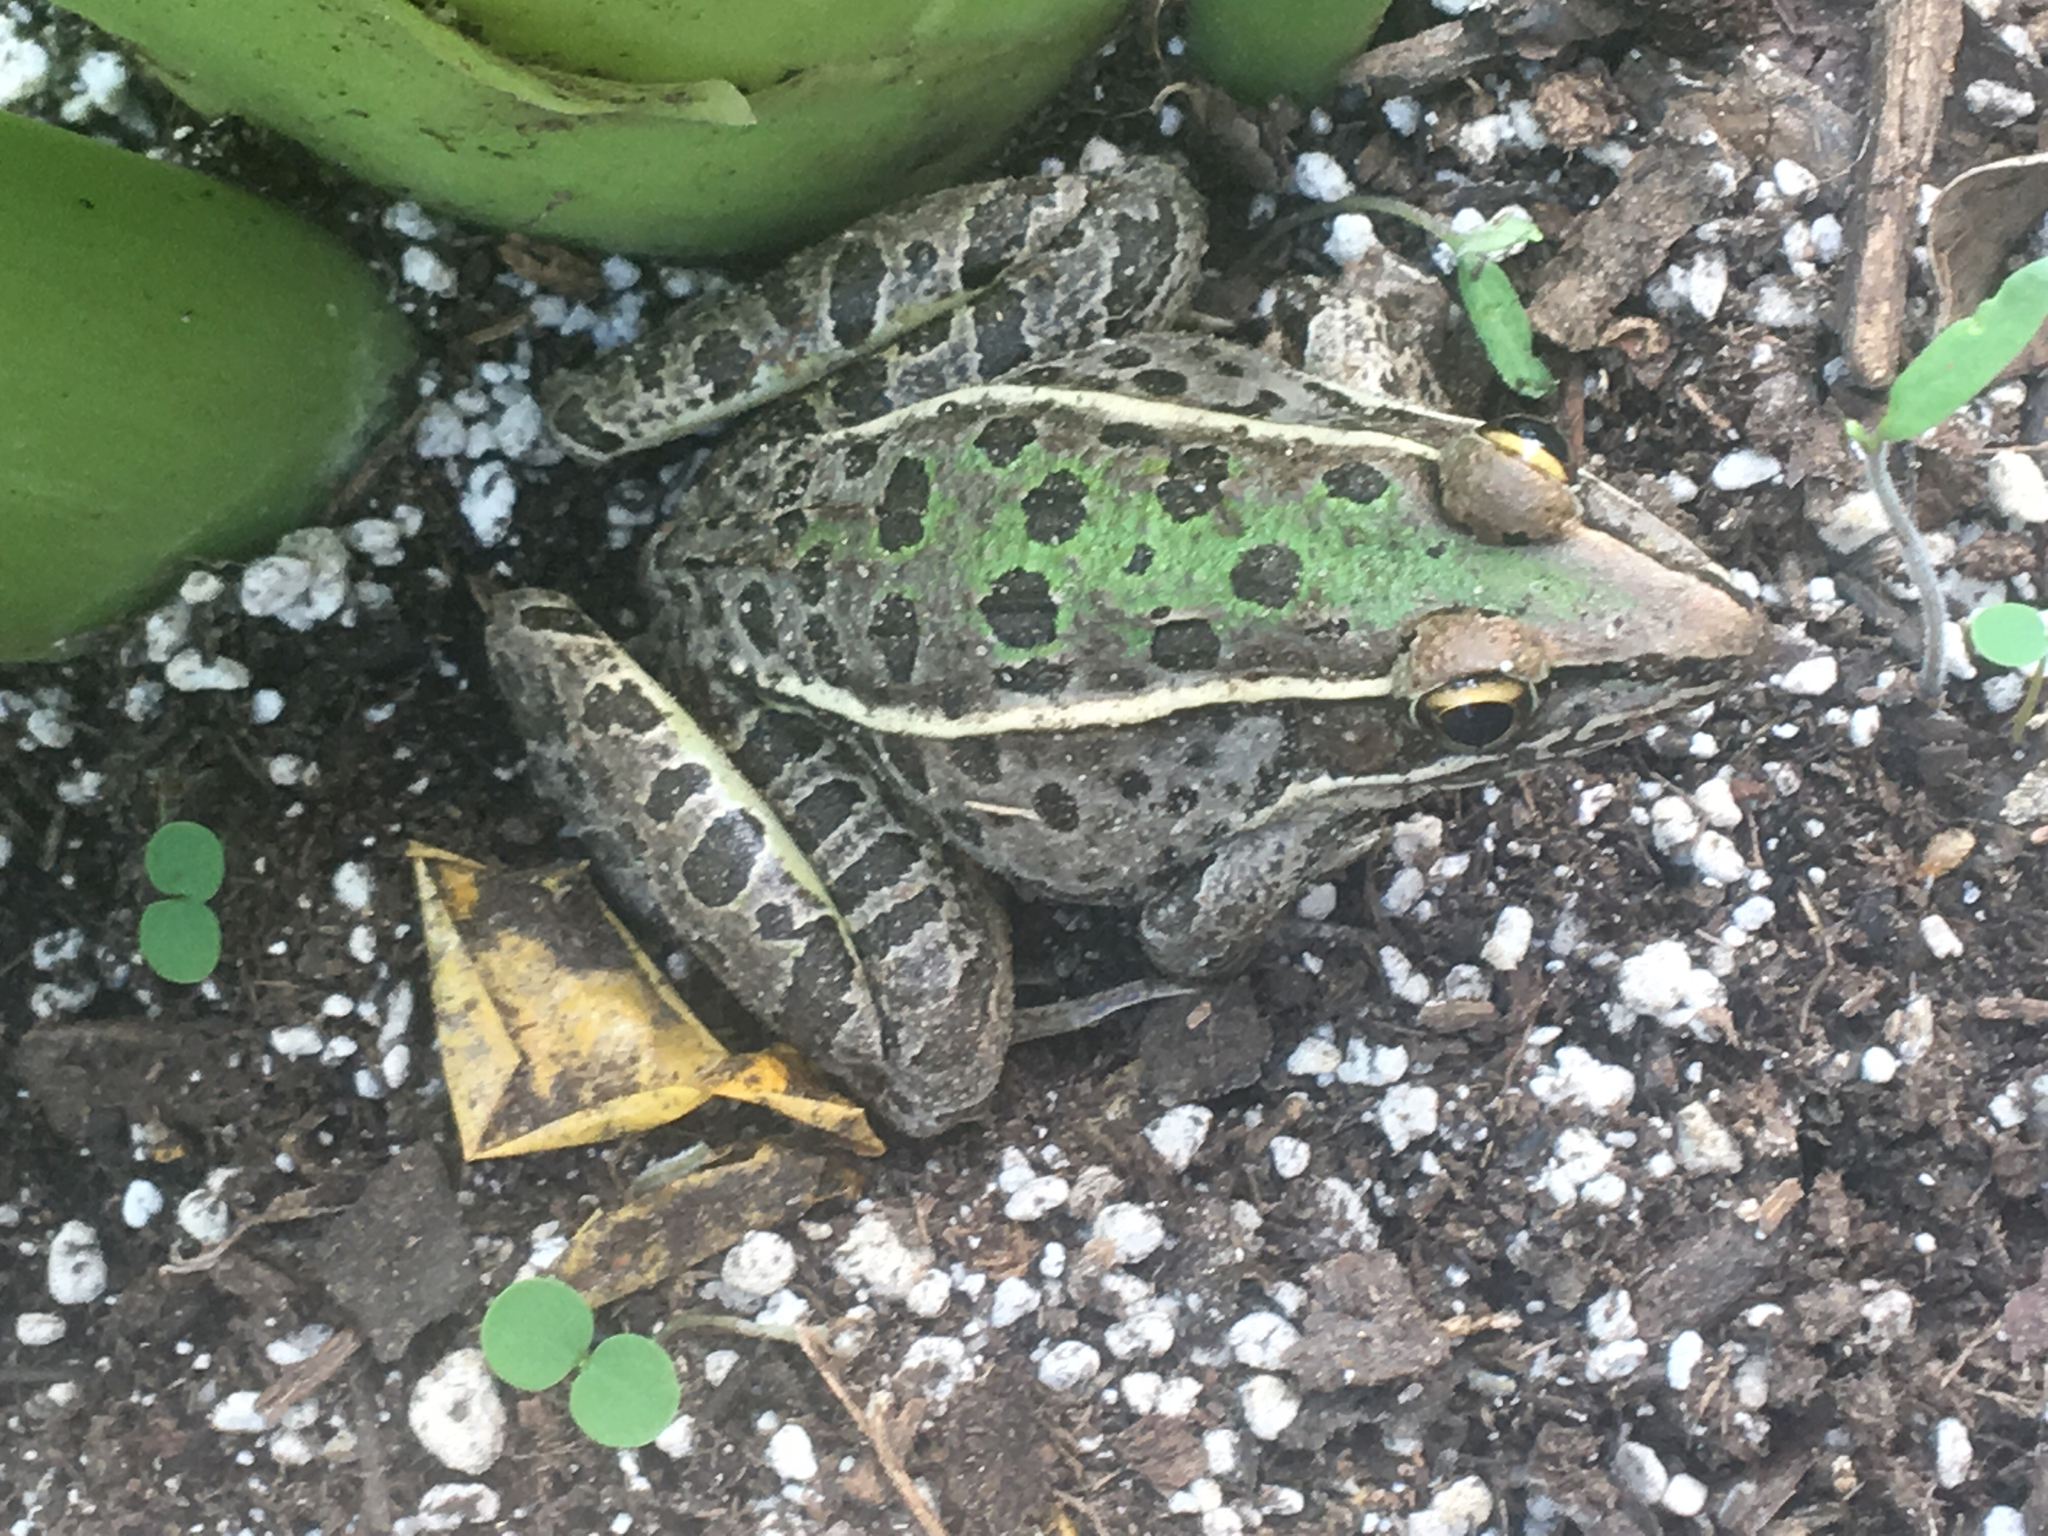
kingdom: Animalia
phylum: Chordata
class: Amphibia
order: Anura
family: Ranidae
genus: Lithobates
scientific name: Lithobates sphenocephalus
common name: Southern leopard frog
